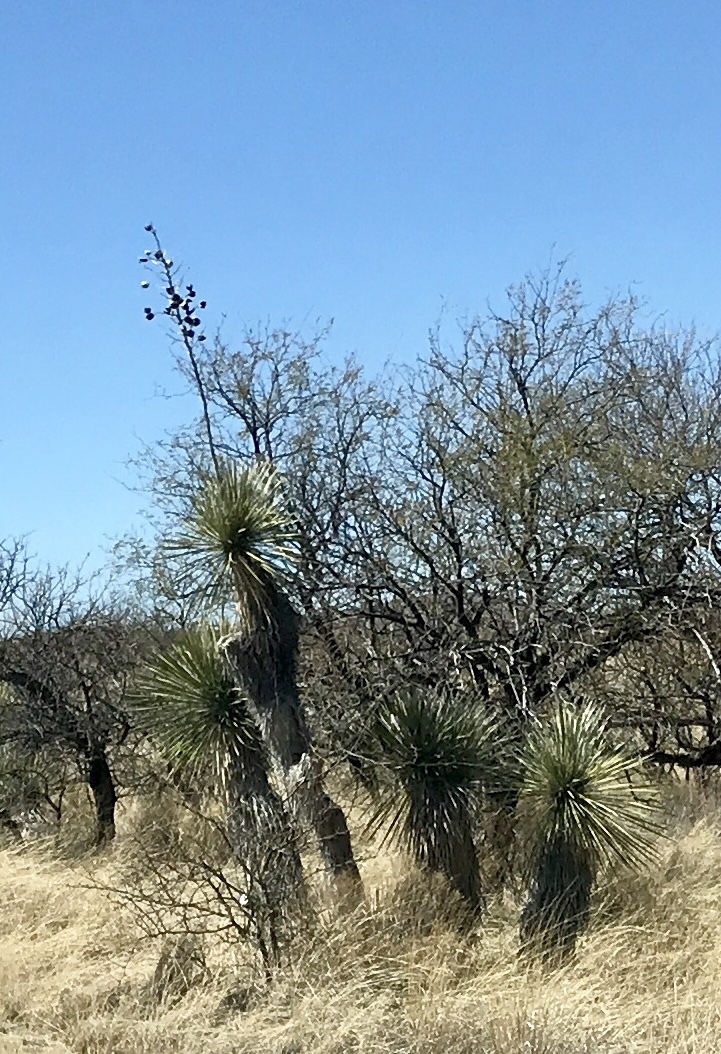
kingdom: Plantae
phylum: Tracheophyta
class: Liliopsida
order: Asparagales
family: Asparagaceae
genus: Yucca
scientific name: Yucca elata
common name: Palmella
